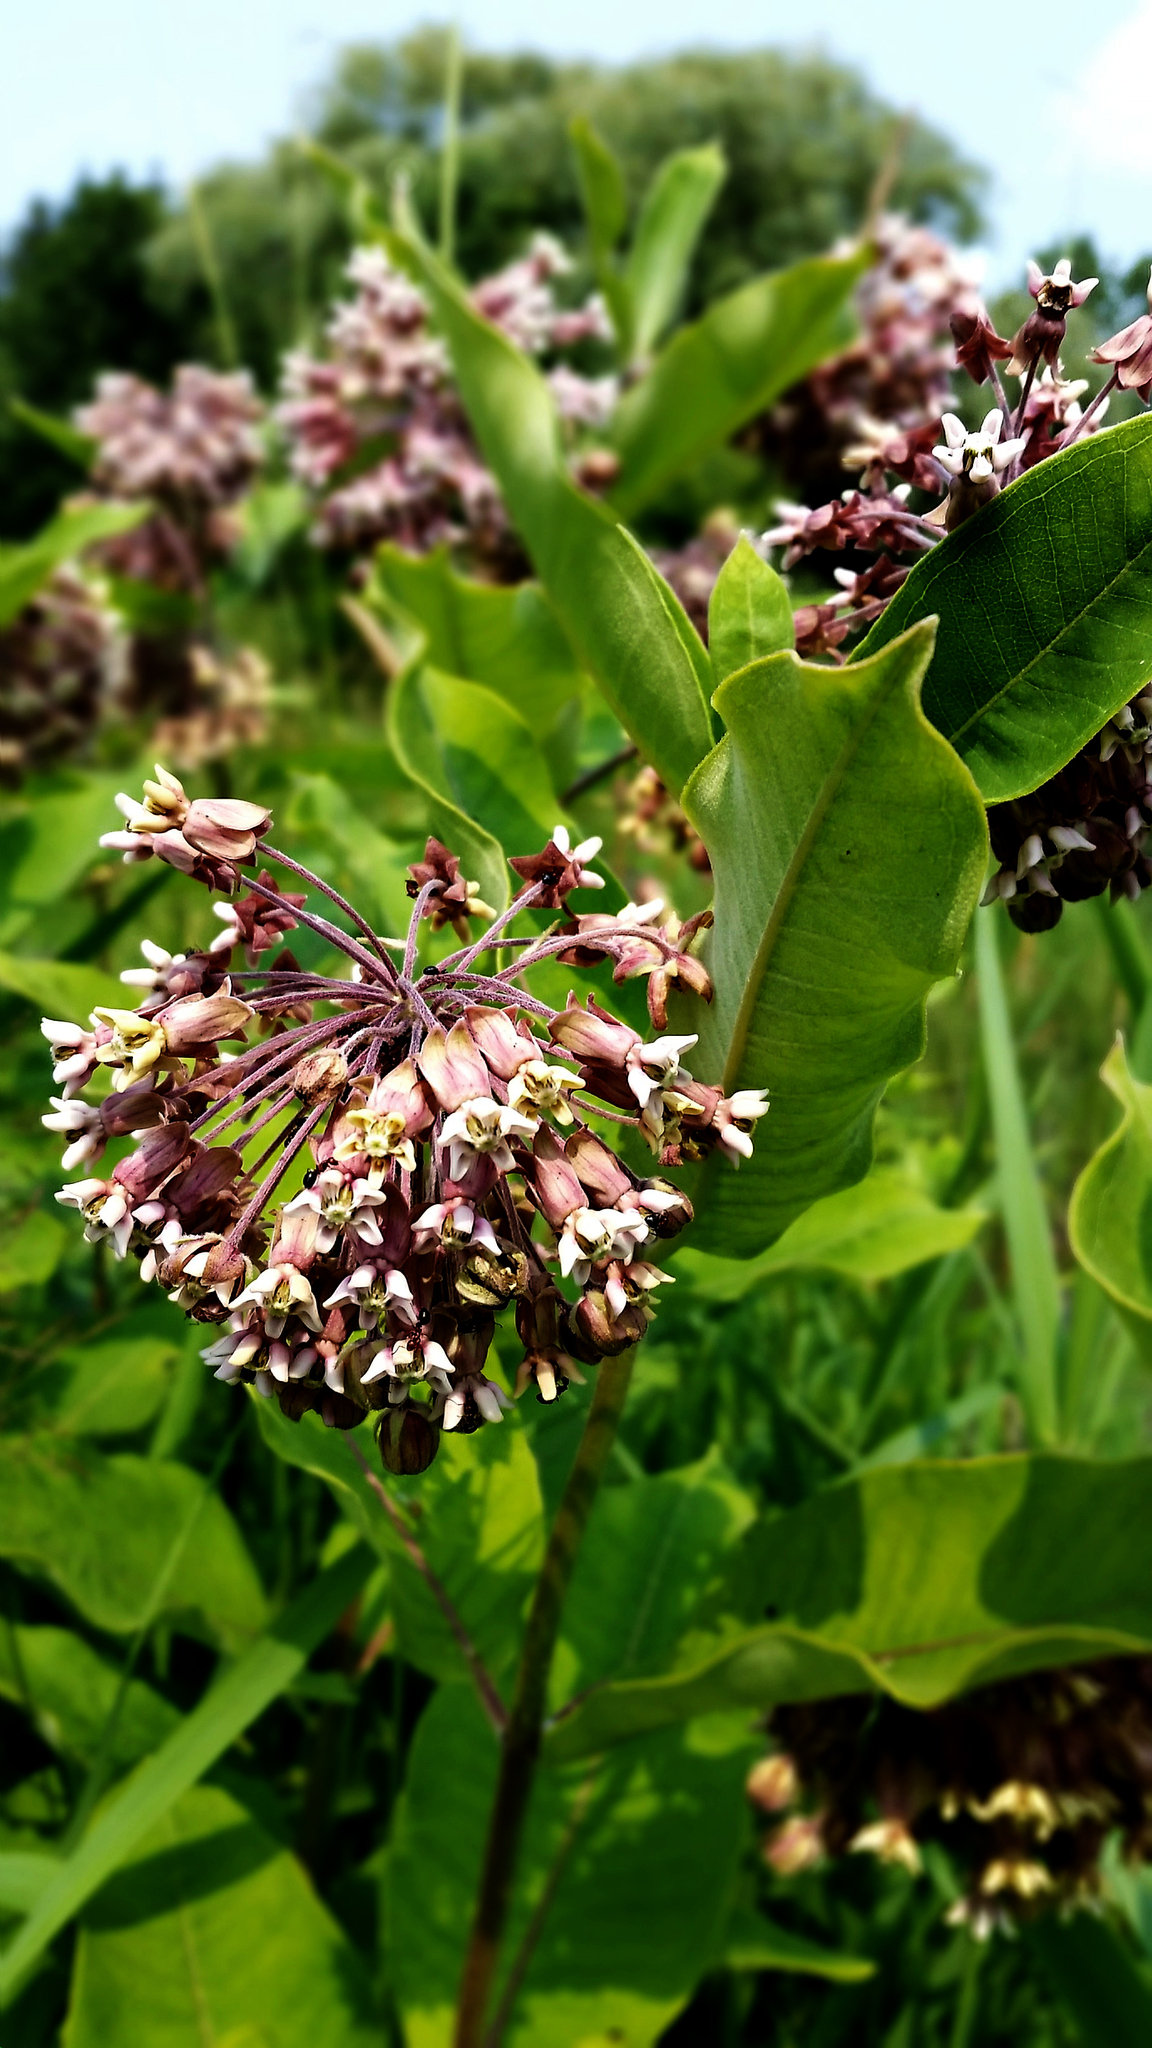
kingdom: Plantae
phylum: Tracheophyta
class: Magnoliopsida
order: Gentianales
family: Apocynaceae
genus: Asclepias
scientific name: Asclepias syriaca
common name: Common milkweed
